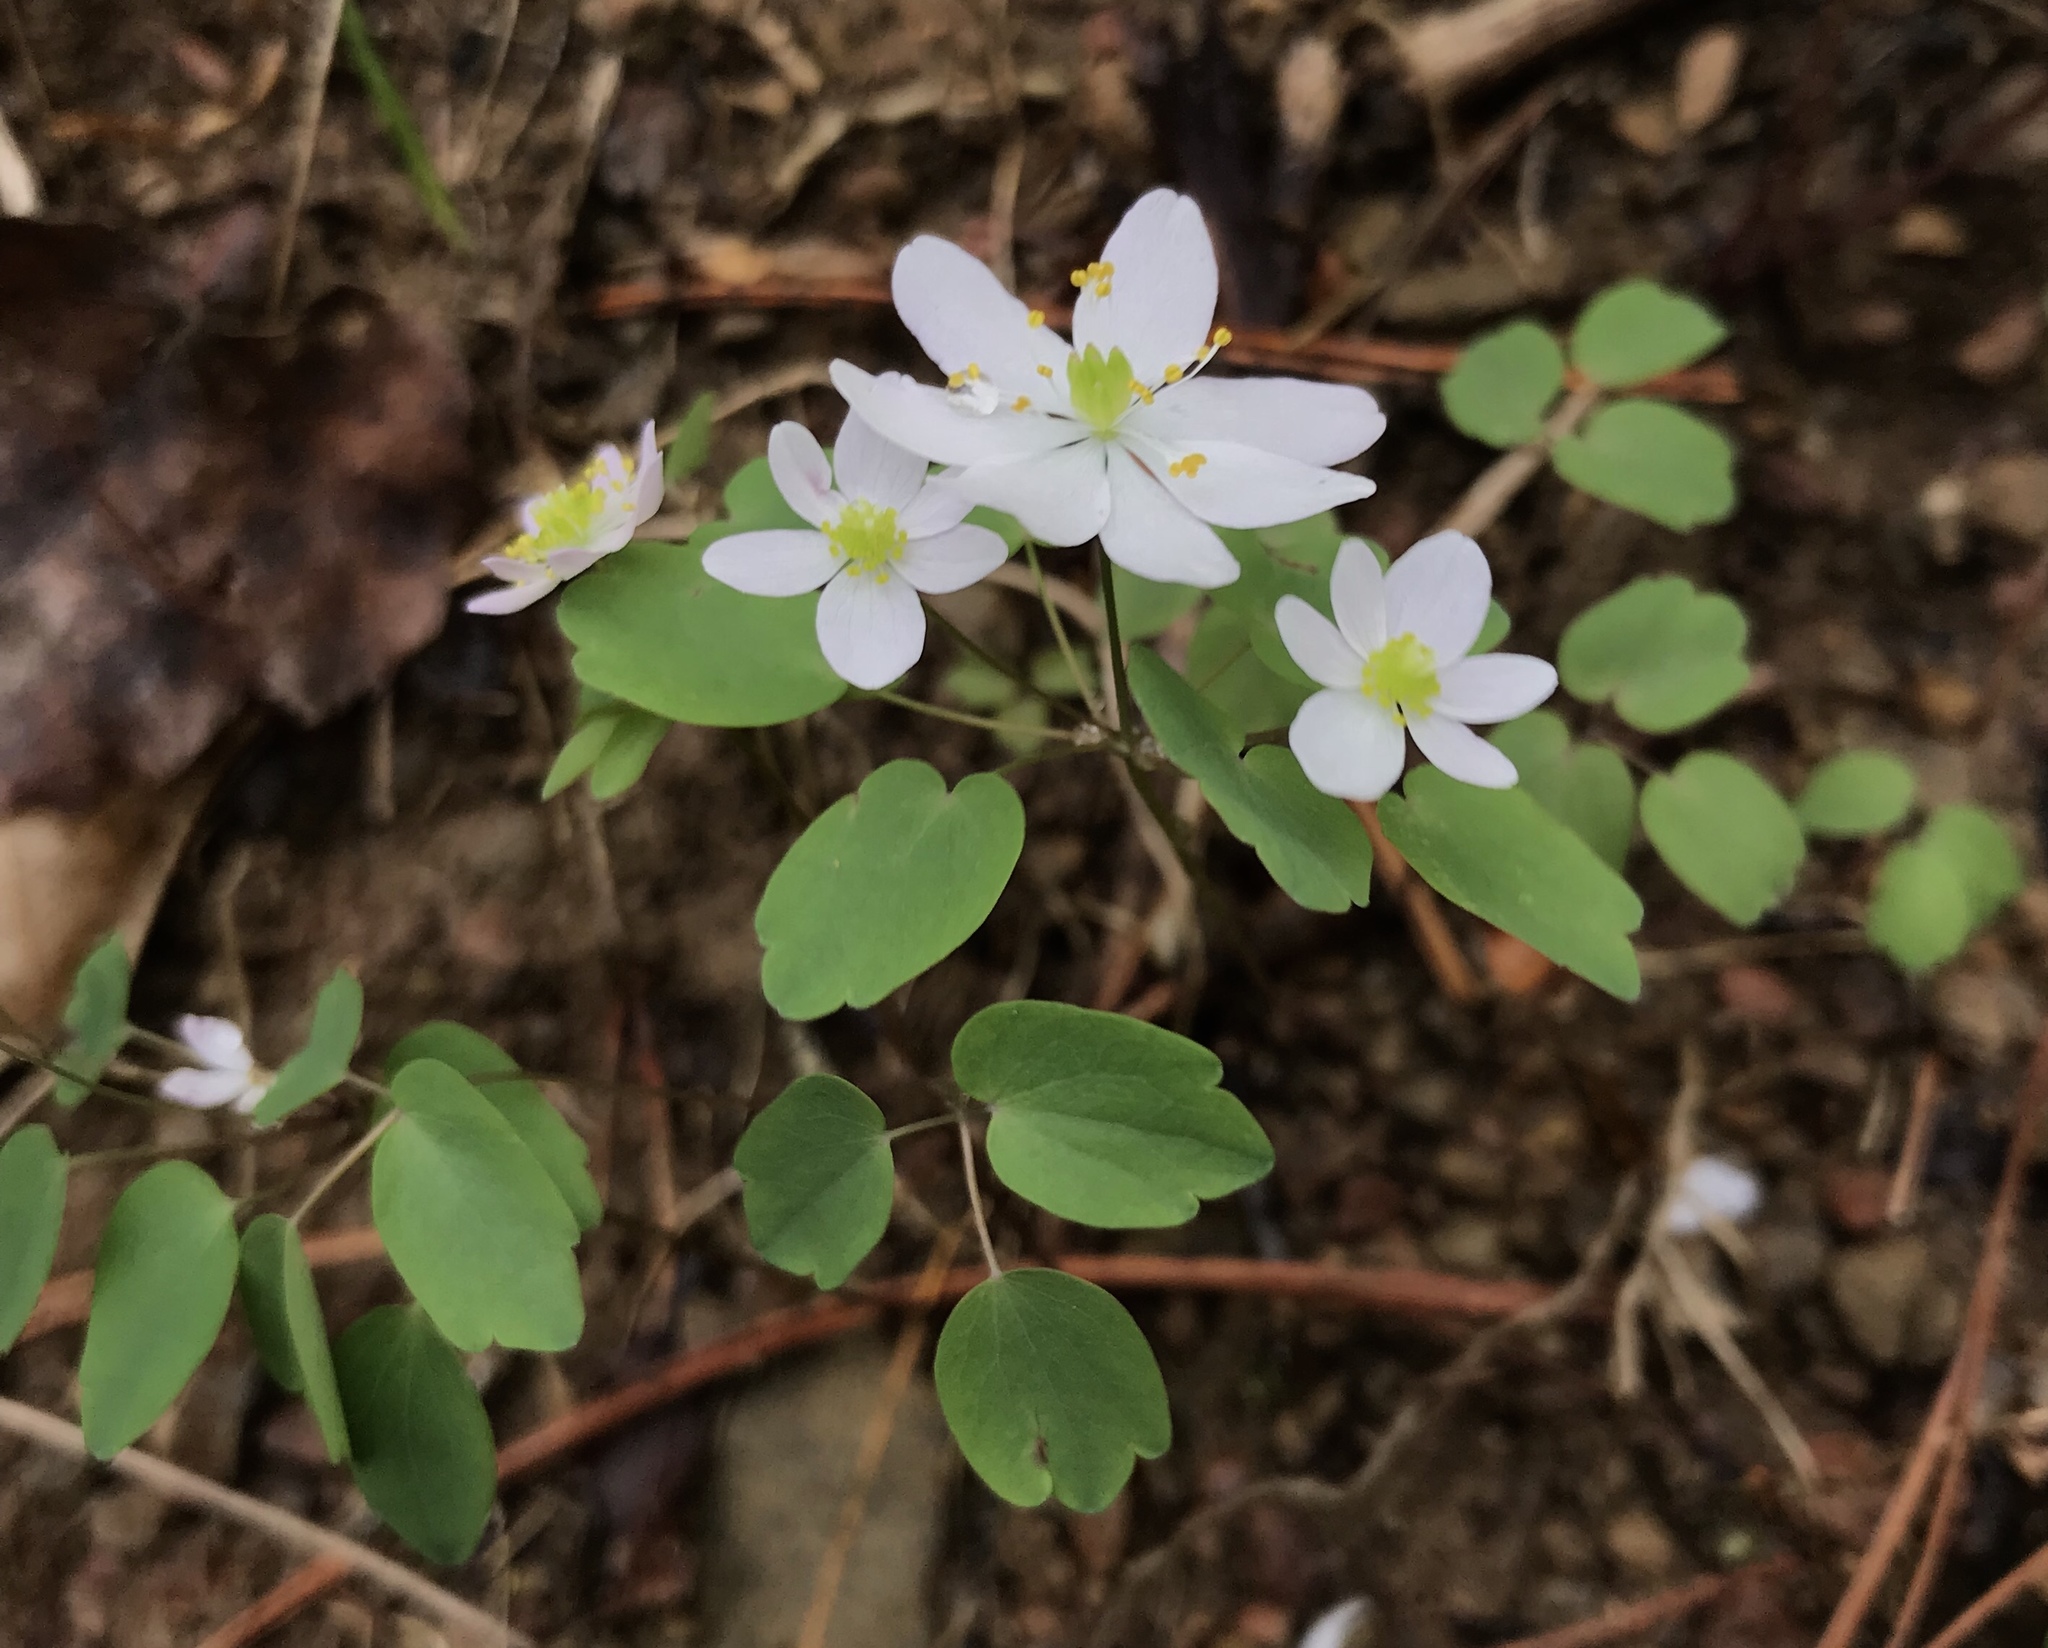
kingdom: Plantae
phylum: Tracheophyta
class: Magnoliopsida
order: Ranunculales
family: Ranunculaceae
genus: Thalictrum
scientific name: Thalictrum thalictroides
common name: Rue-anemone
